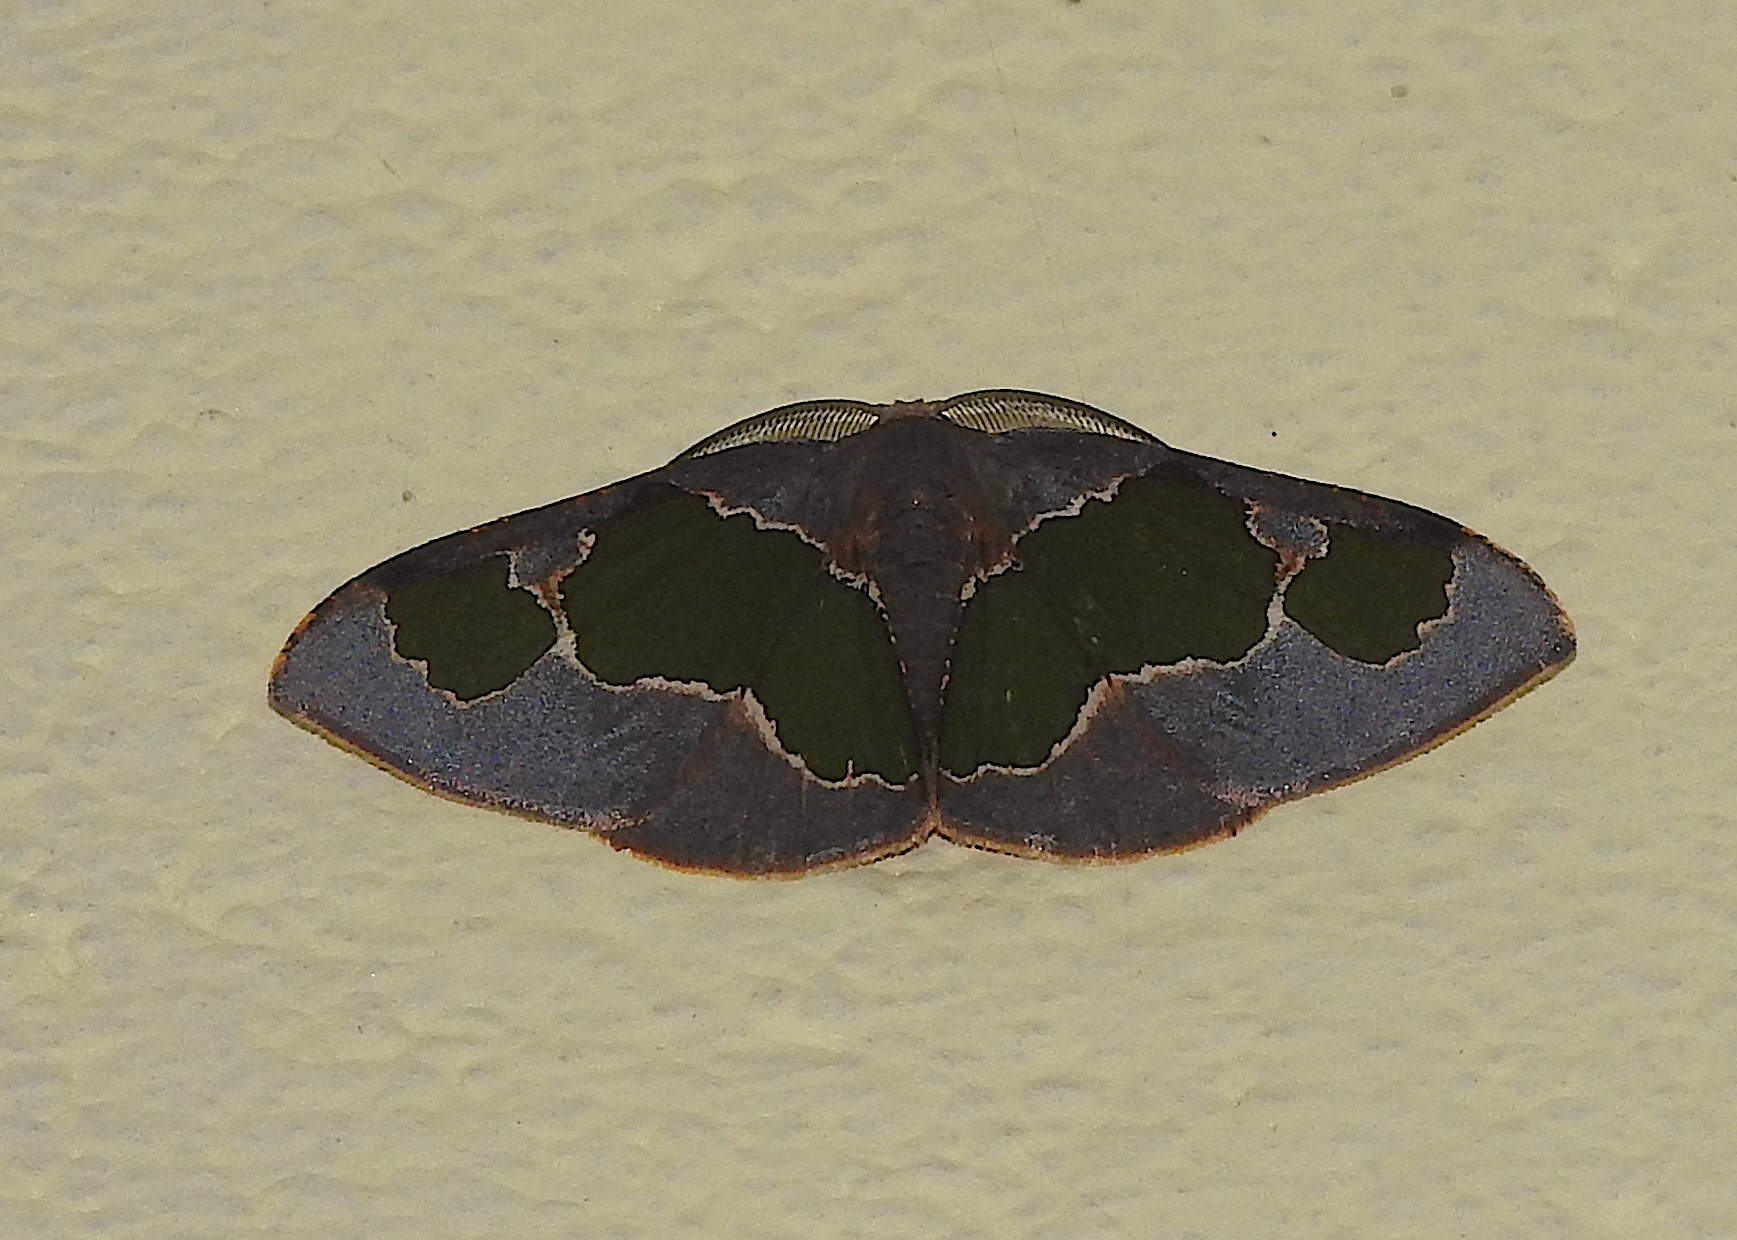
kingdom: Animalia
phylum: Arthropoda
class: Insecta
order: Lepidoptera
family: Geometridae
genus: Celenna
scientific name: Celenna festivaria
